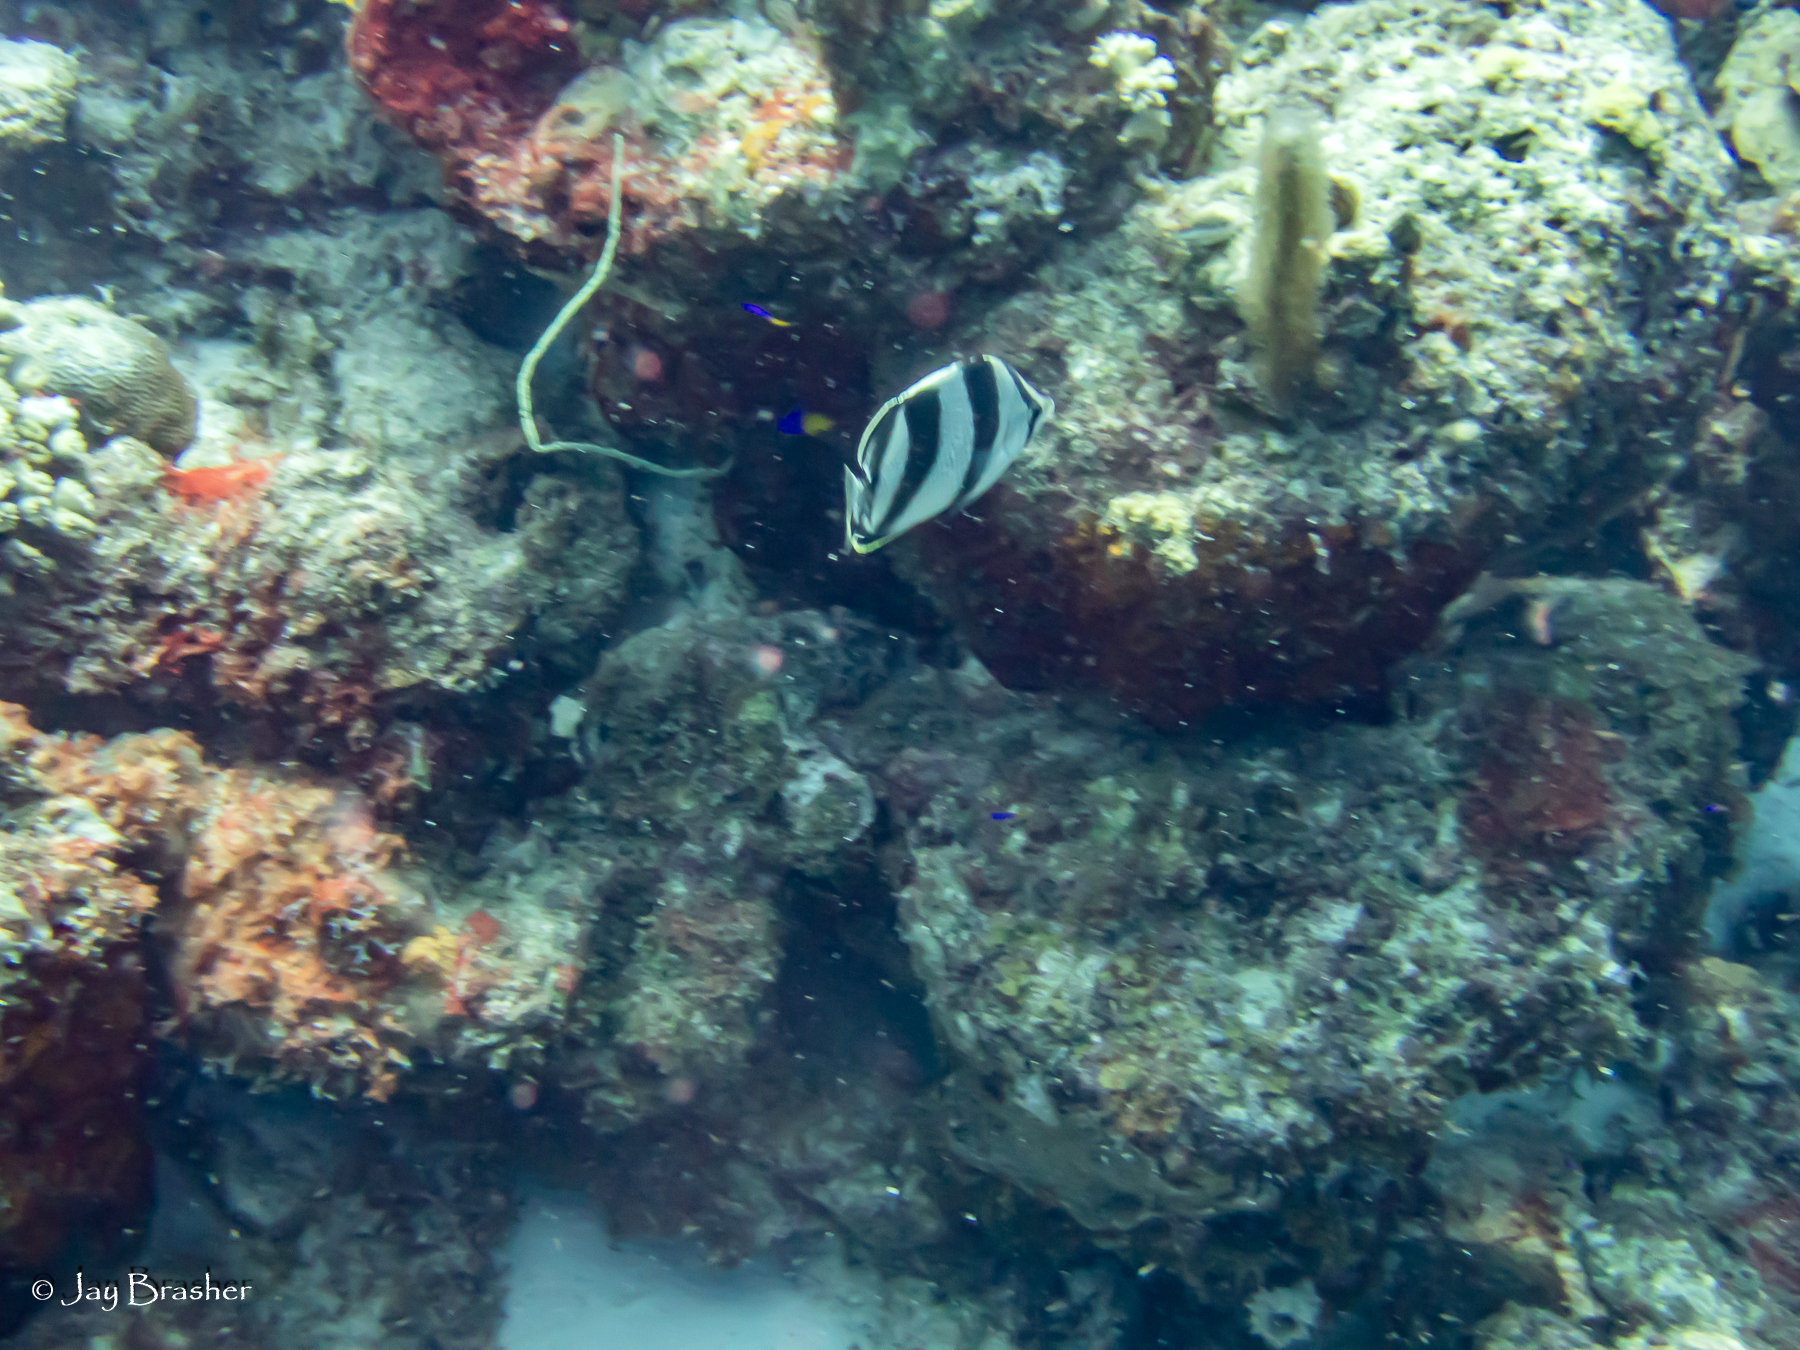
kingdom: Animalia
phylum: Chordata
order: Perciformes
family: Chaetodontidae
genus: Chaetodon
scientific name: Chaetodon striatus
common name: Banded butterflyfish
